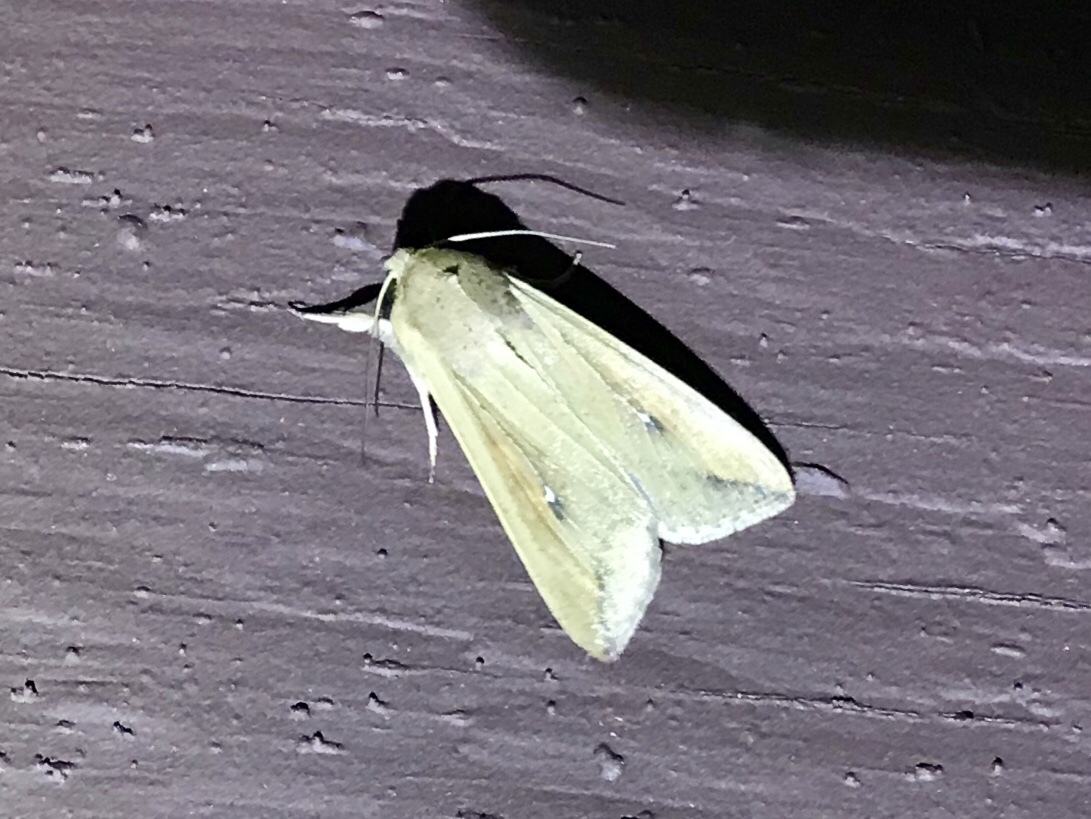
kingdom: Animalia
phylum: Arthropoda
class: Insecta
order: Lepidoptera
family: Noctuidae
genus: Mythimna
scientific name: Mythimna unipuncta
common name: White-speck
